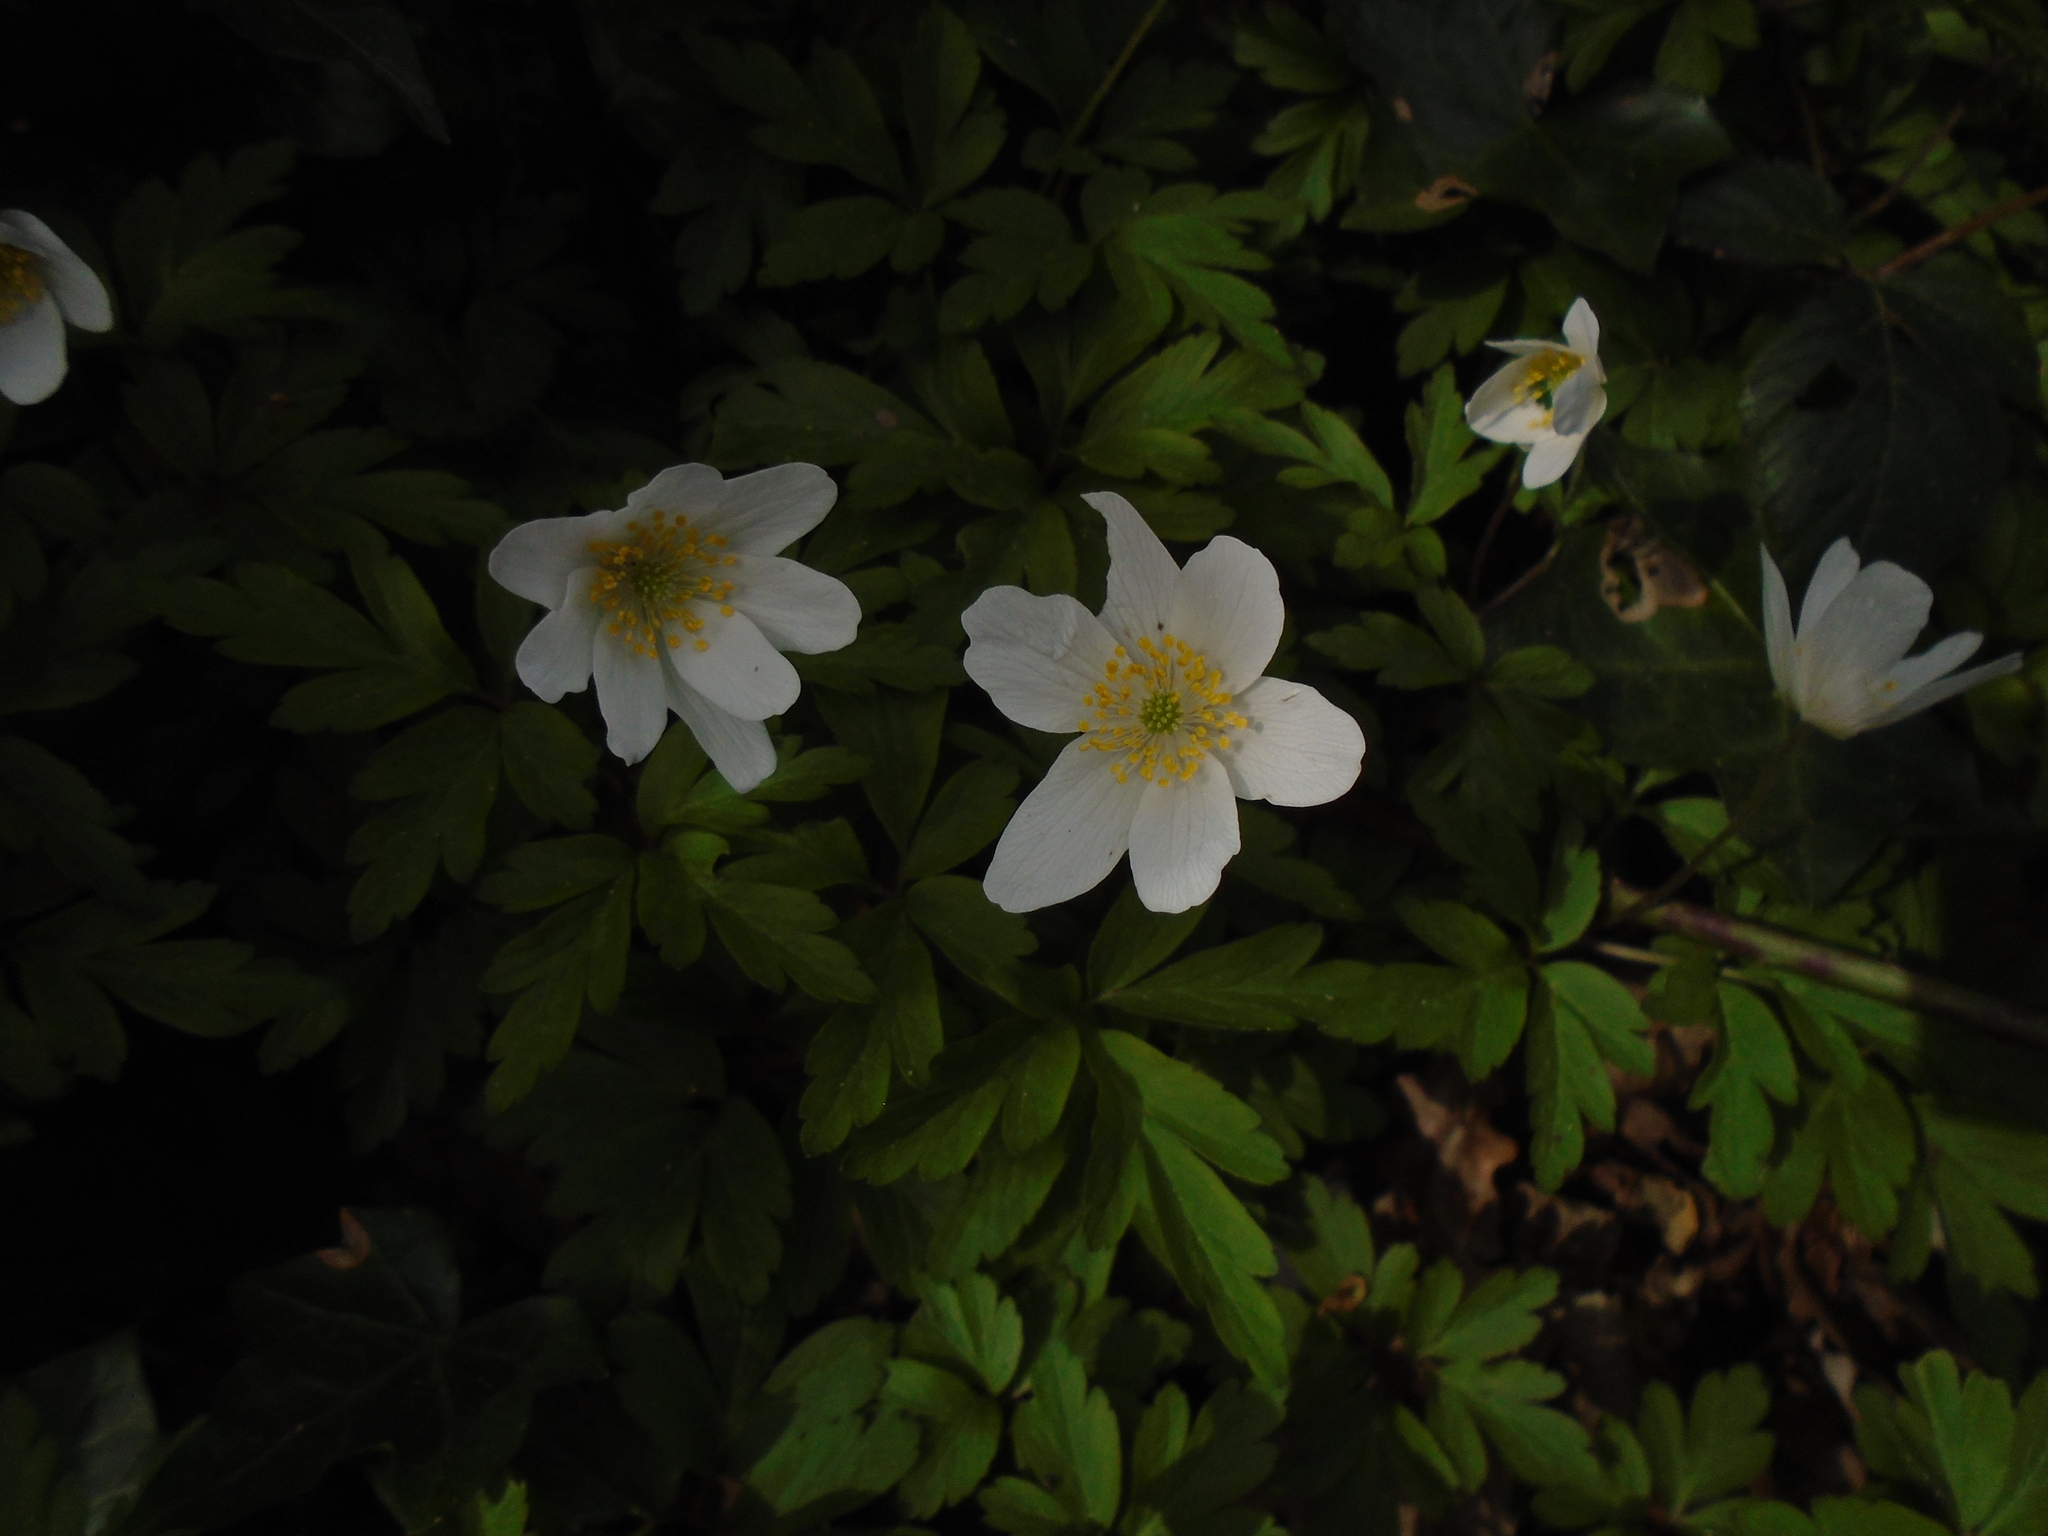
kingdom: Plantae
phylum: Tracheophyta
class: Magnoliopsida
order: Ranunculales
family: Ranunculaceae
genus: Anemone
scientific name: Anemone nemorosa
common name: Wood anemone
